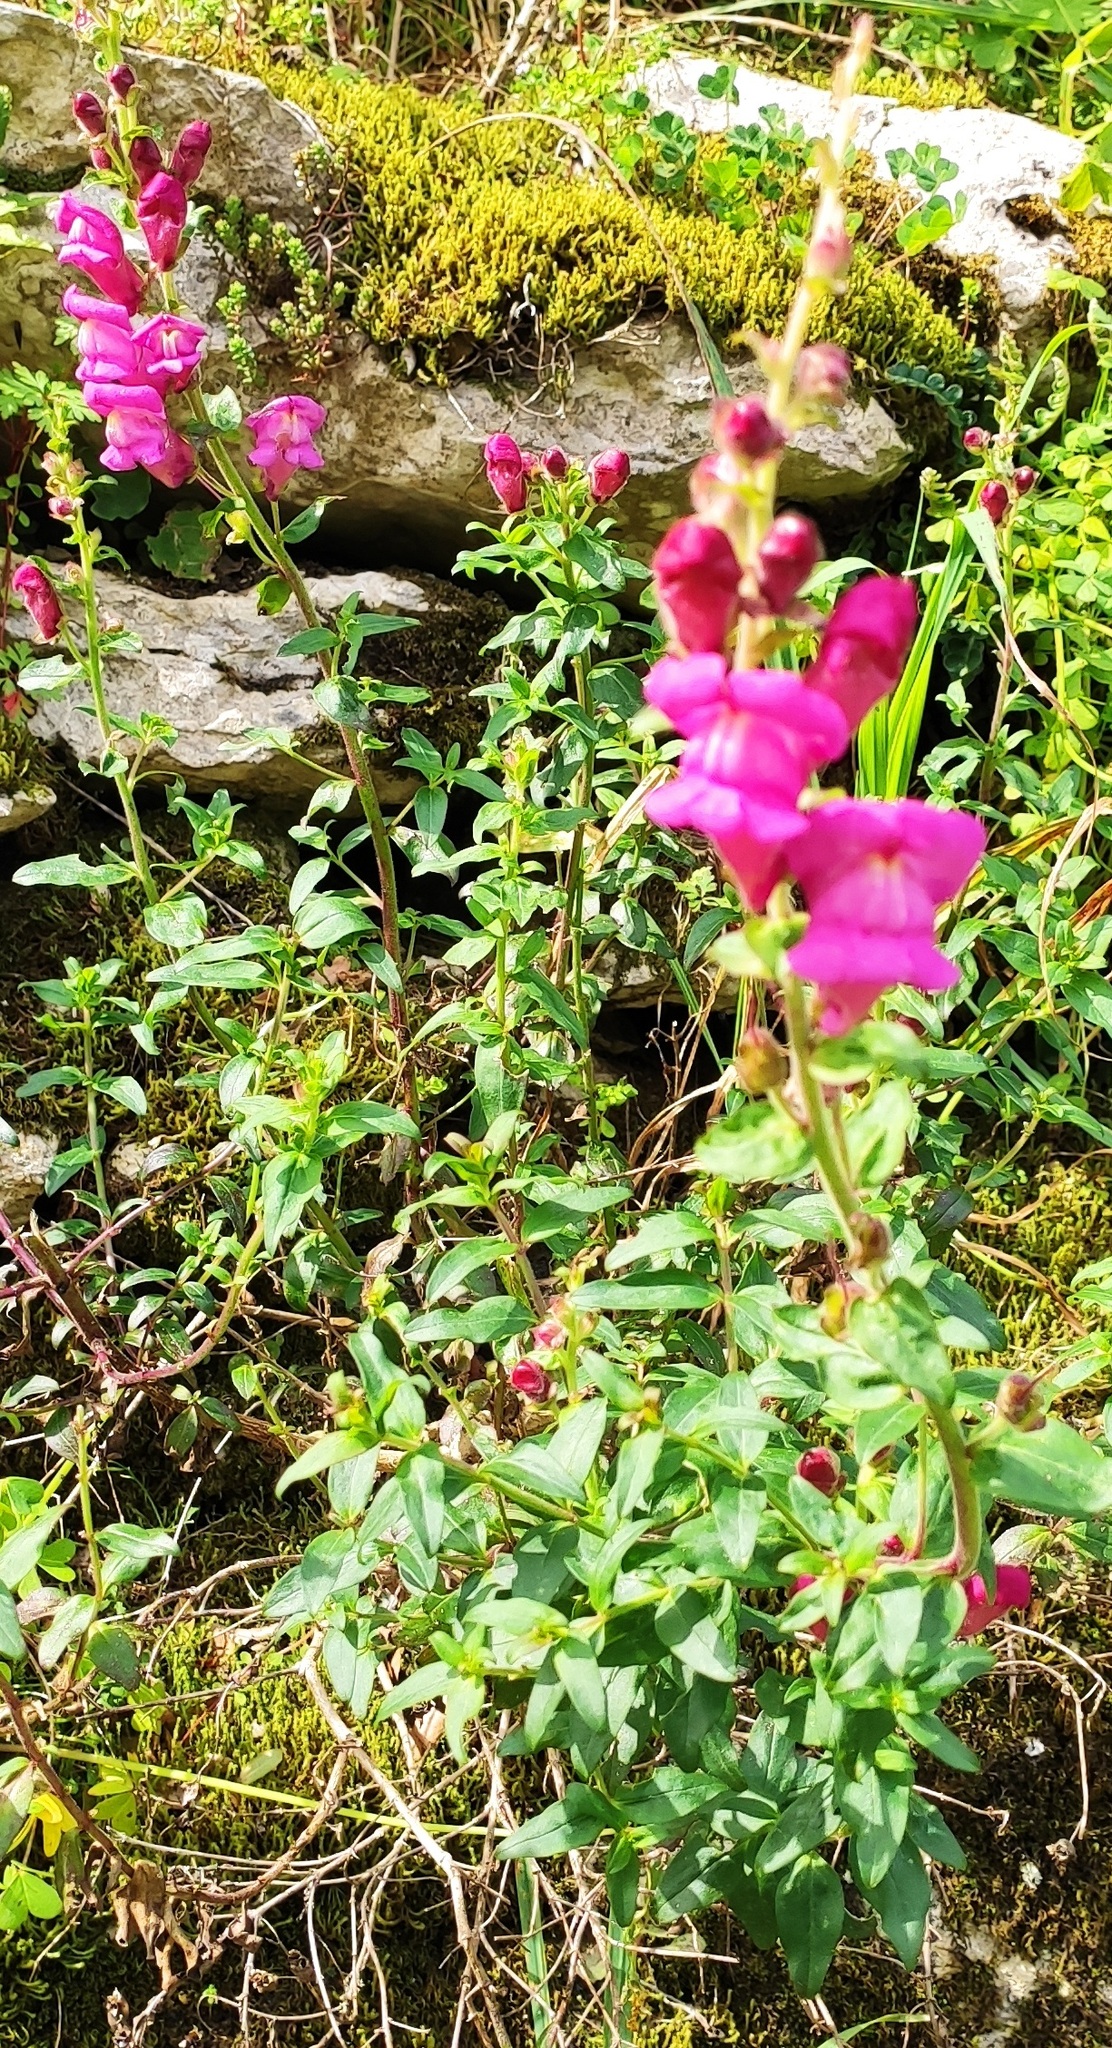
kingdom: Plantae
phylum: Tracheophyta
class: Magnoliopsida
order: Lamiales
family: Plantaginaceae
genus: Antirrhinum
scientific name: Antirrhinum linkianum
